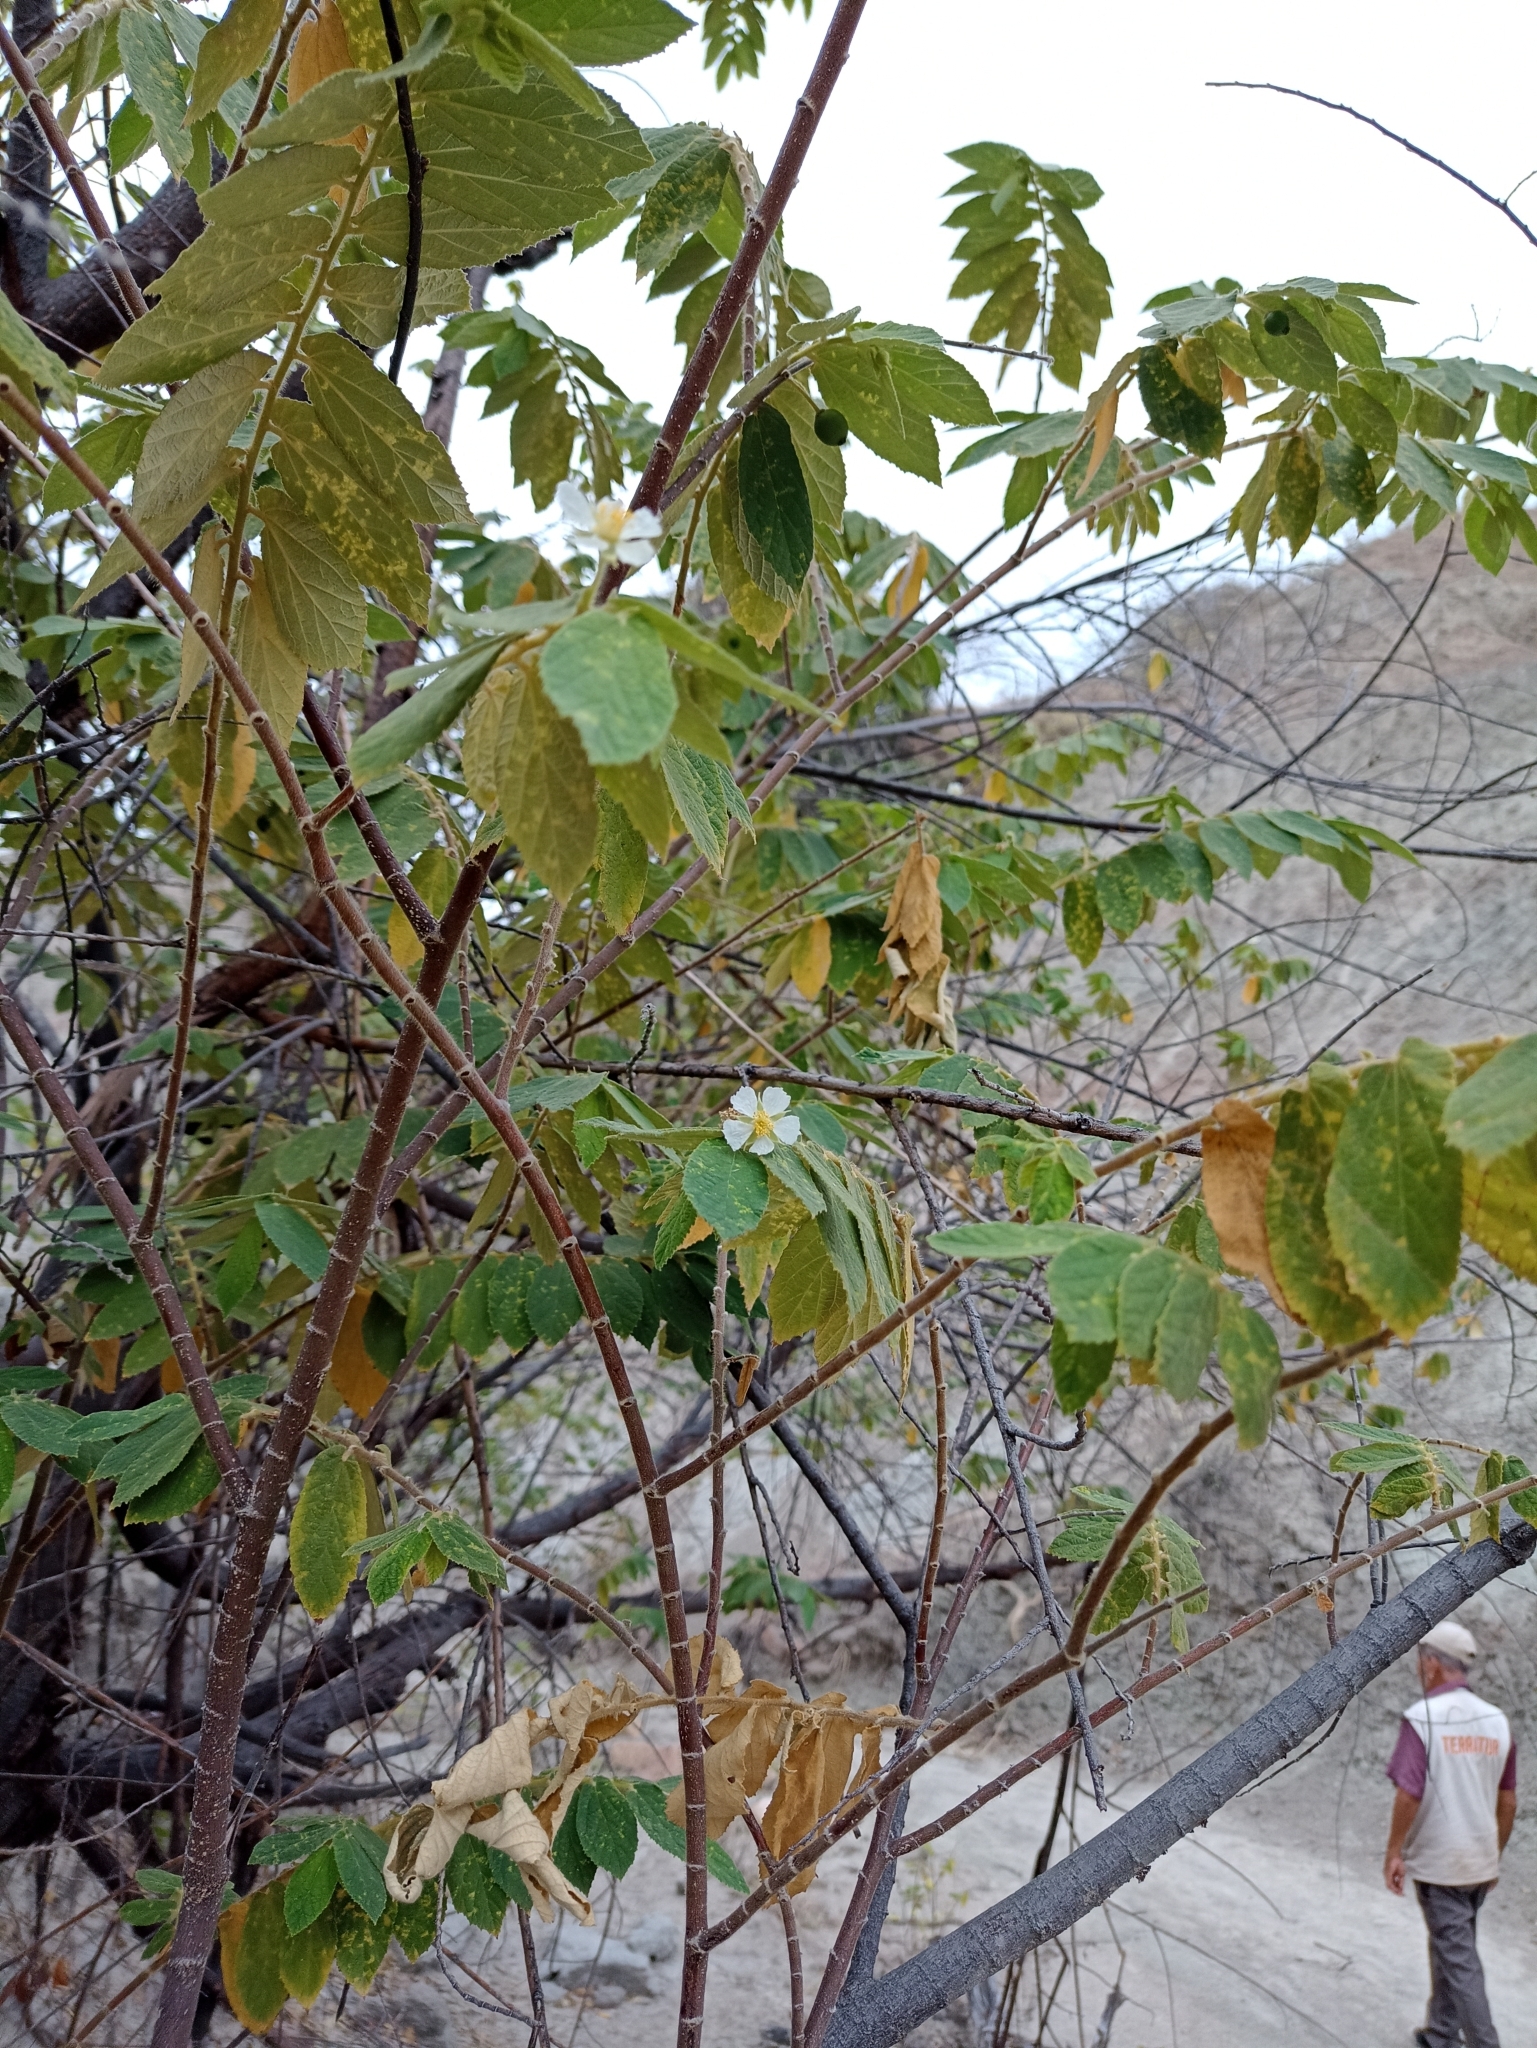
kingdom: Plantae
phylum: Tracheophyta
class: Magnoliopsida
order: Malvales
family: Muntingiaceae
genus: Muntingia
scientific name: Muntingia calabura
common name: Strawberrytree
